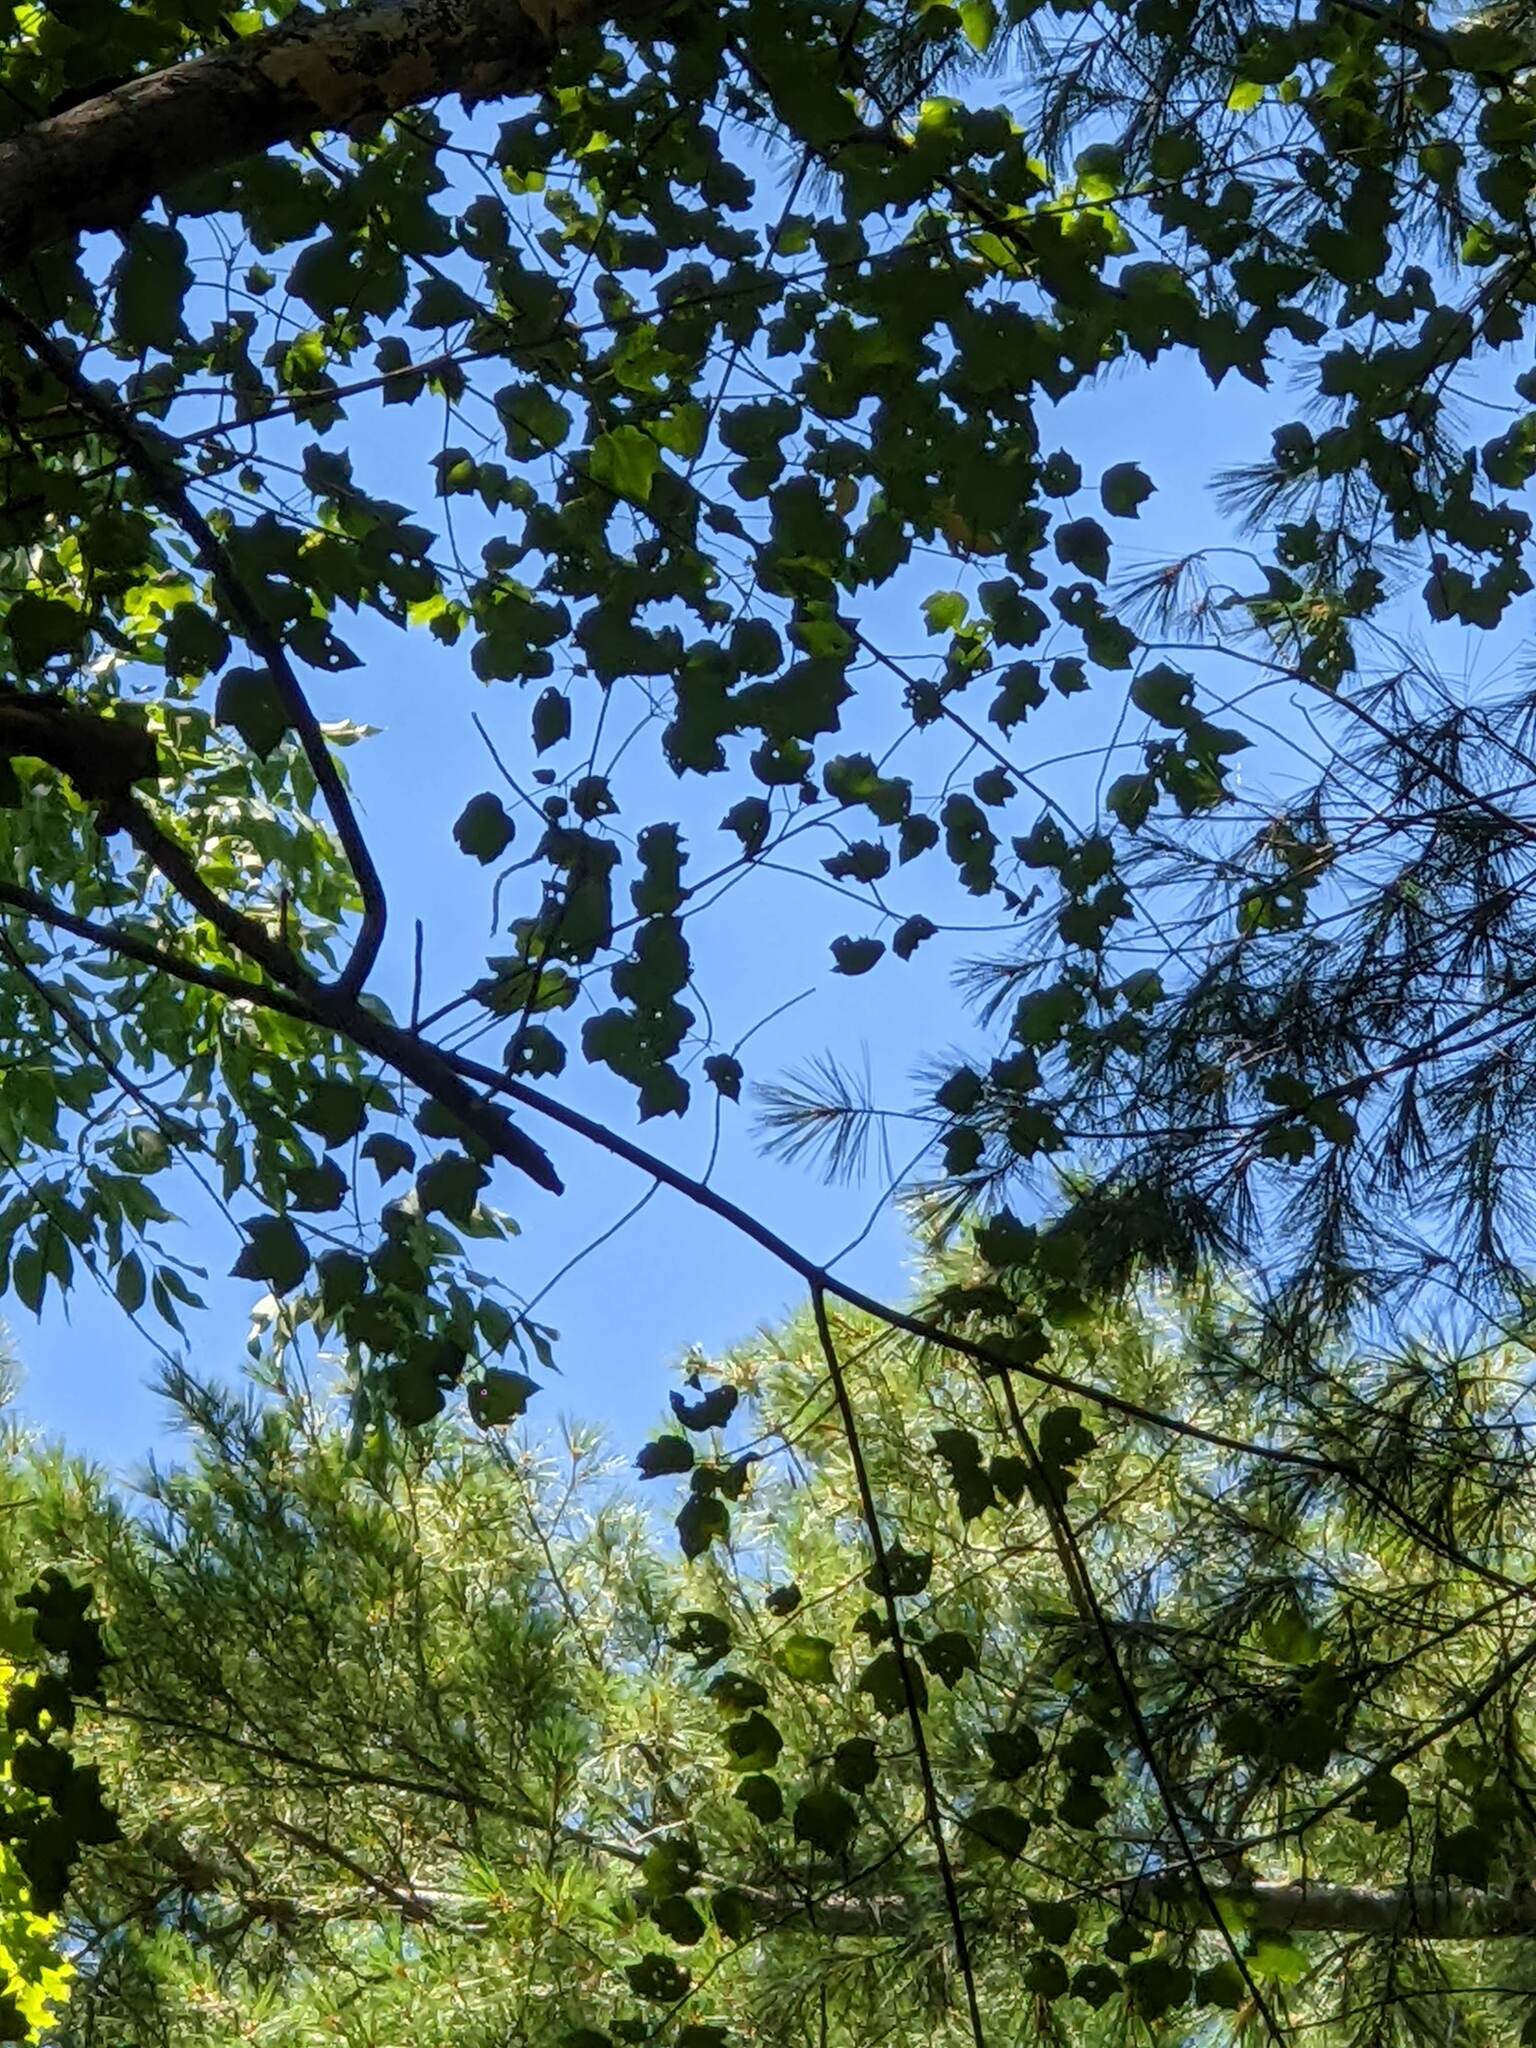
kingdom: Plantae
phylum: Tracheophyta
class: Magnoliopsida
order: Sapindales
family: Sapindaceae
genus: Acer
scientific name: Acer rubrum
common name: Red maple
